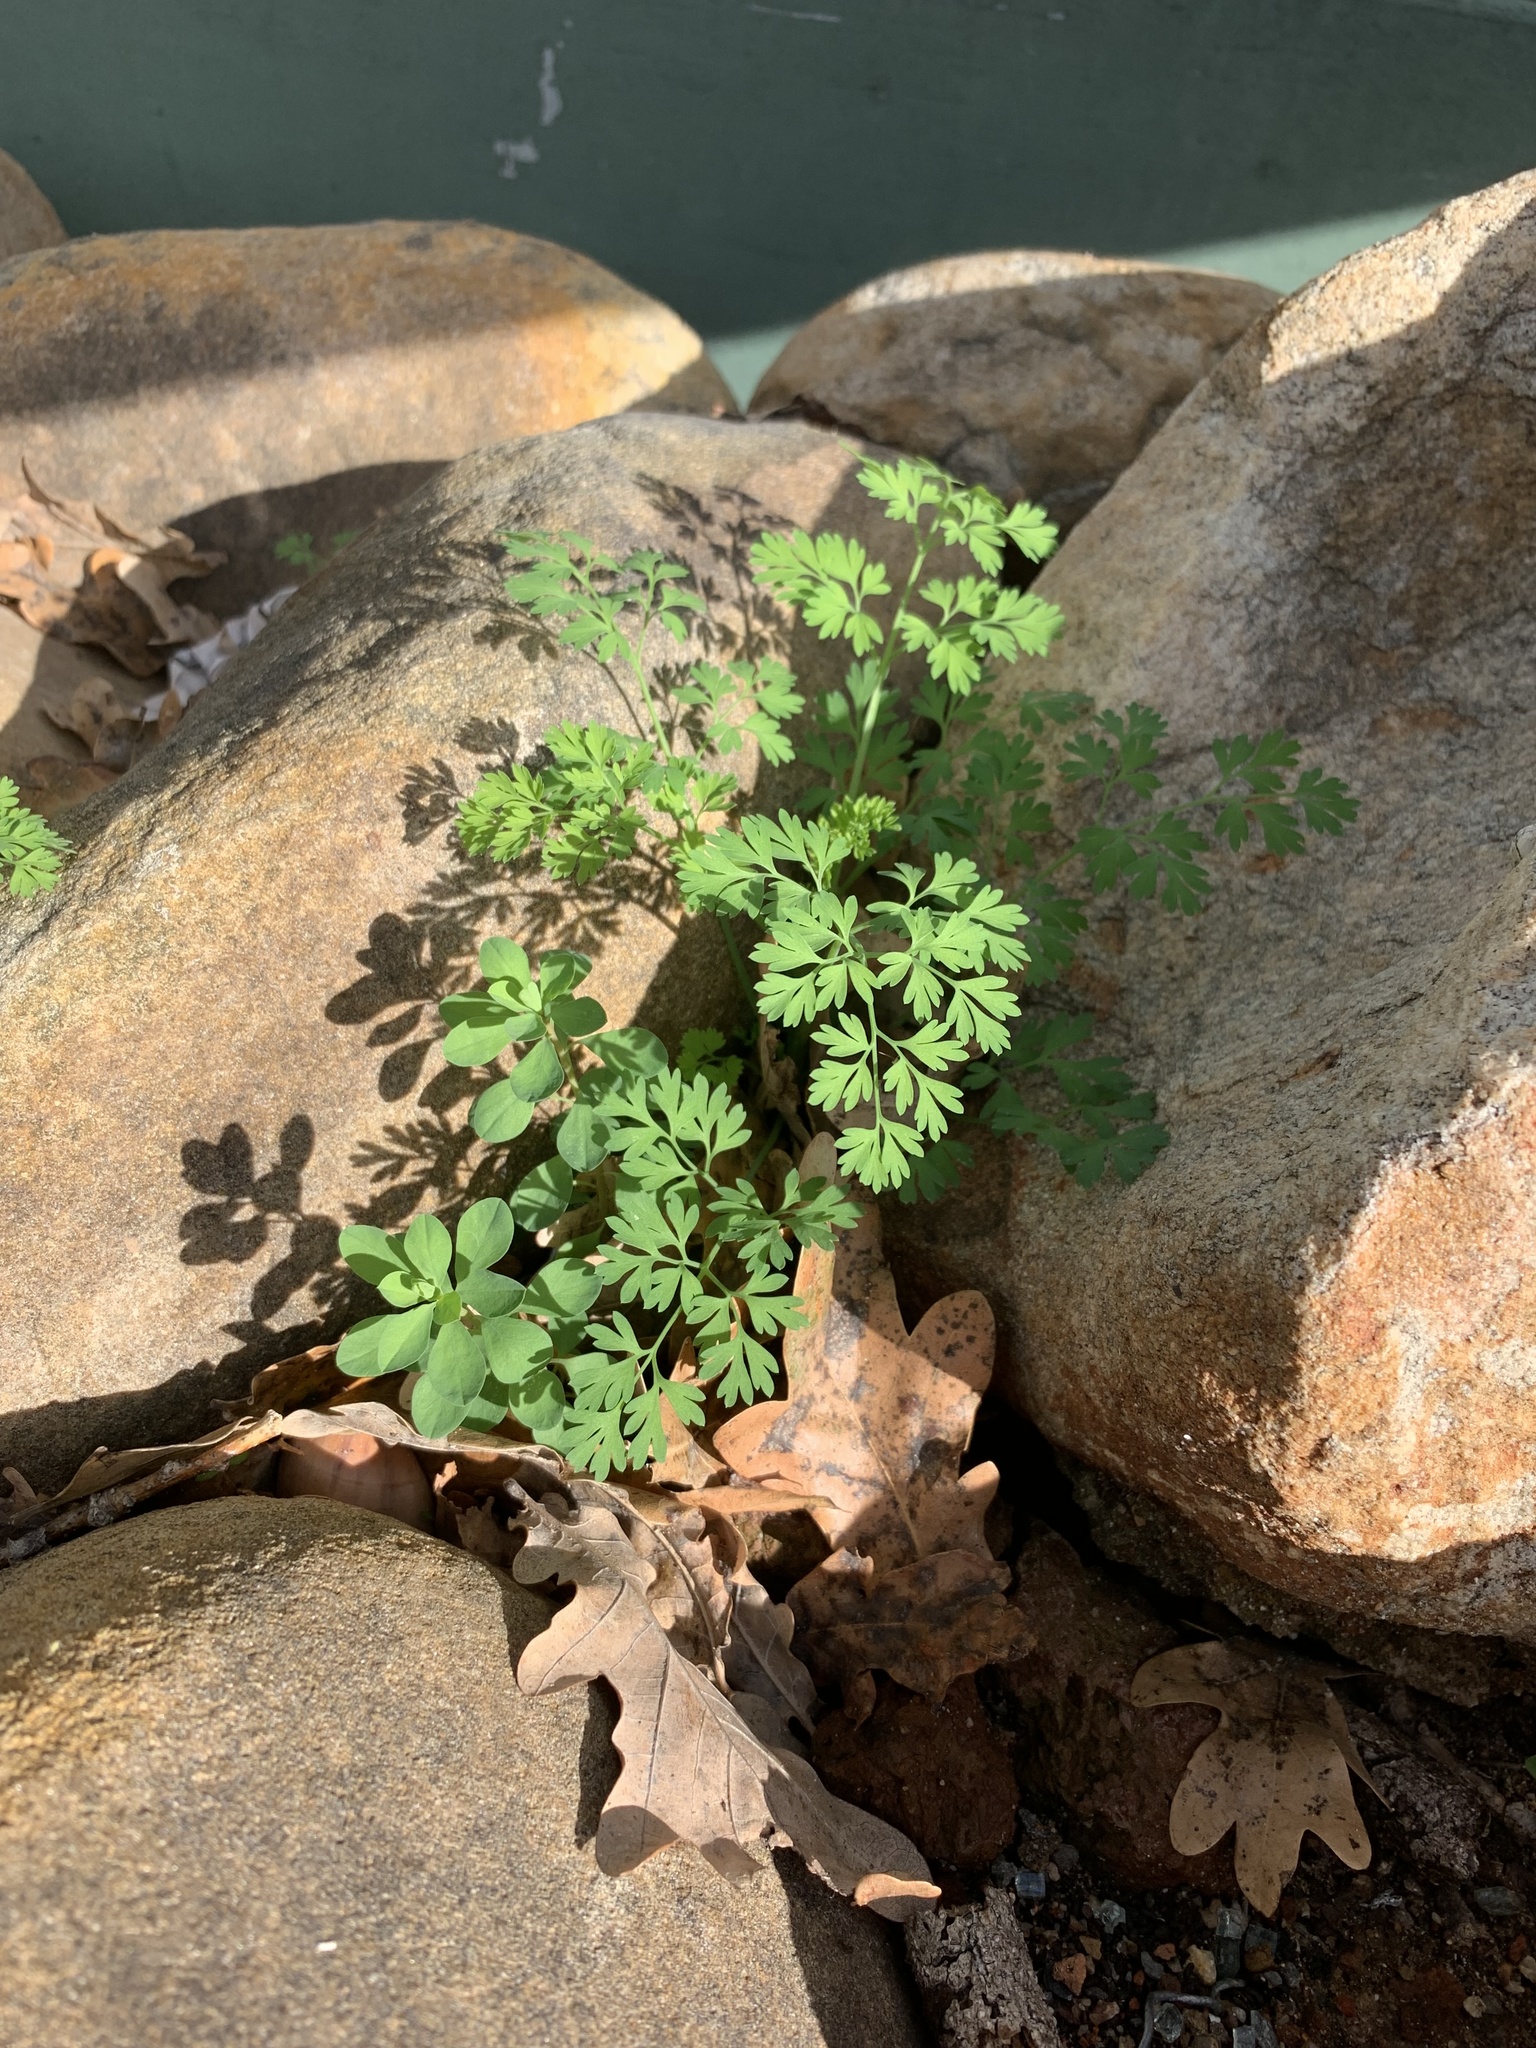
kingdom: Plantae
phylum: Tracheophyta
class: Magnoliopsida
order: Ranunculales
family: Papaveraceae
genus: Fumaria
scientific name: Fumaria muralis
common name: Common ramping-fumitory
